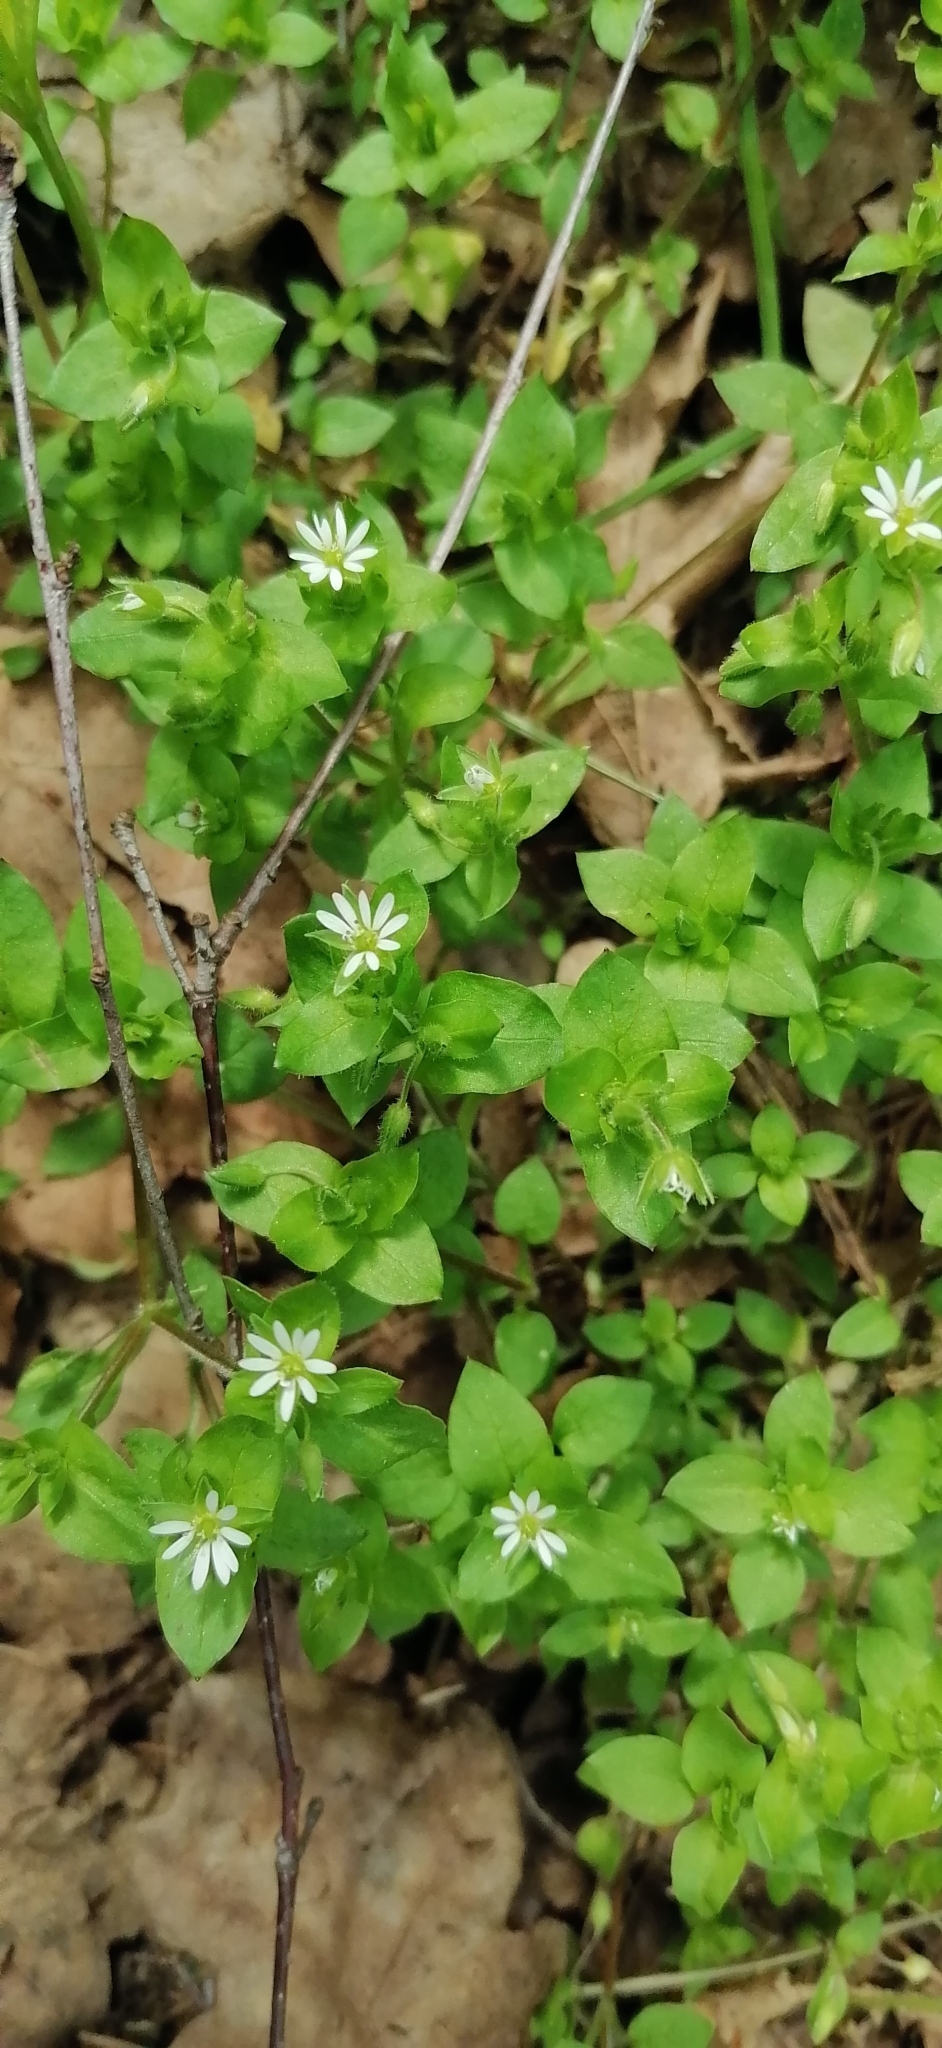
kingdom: Plantae
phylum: Tracheophyta
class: Magnoliopsida
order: Caryophyllales
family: Caryophyllaceae
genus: Stellaria
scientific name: Stellaria media
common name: Common chickweed
